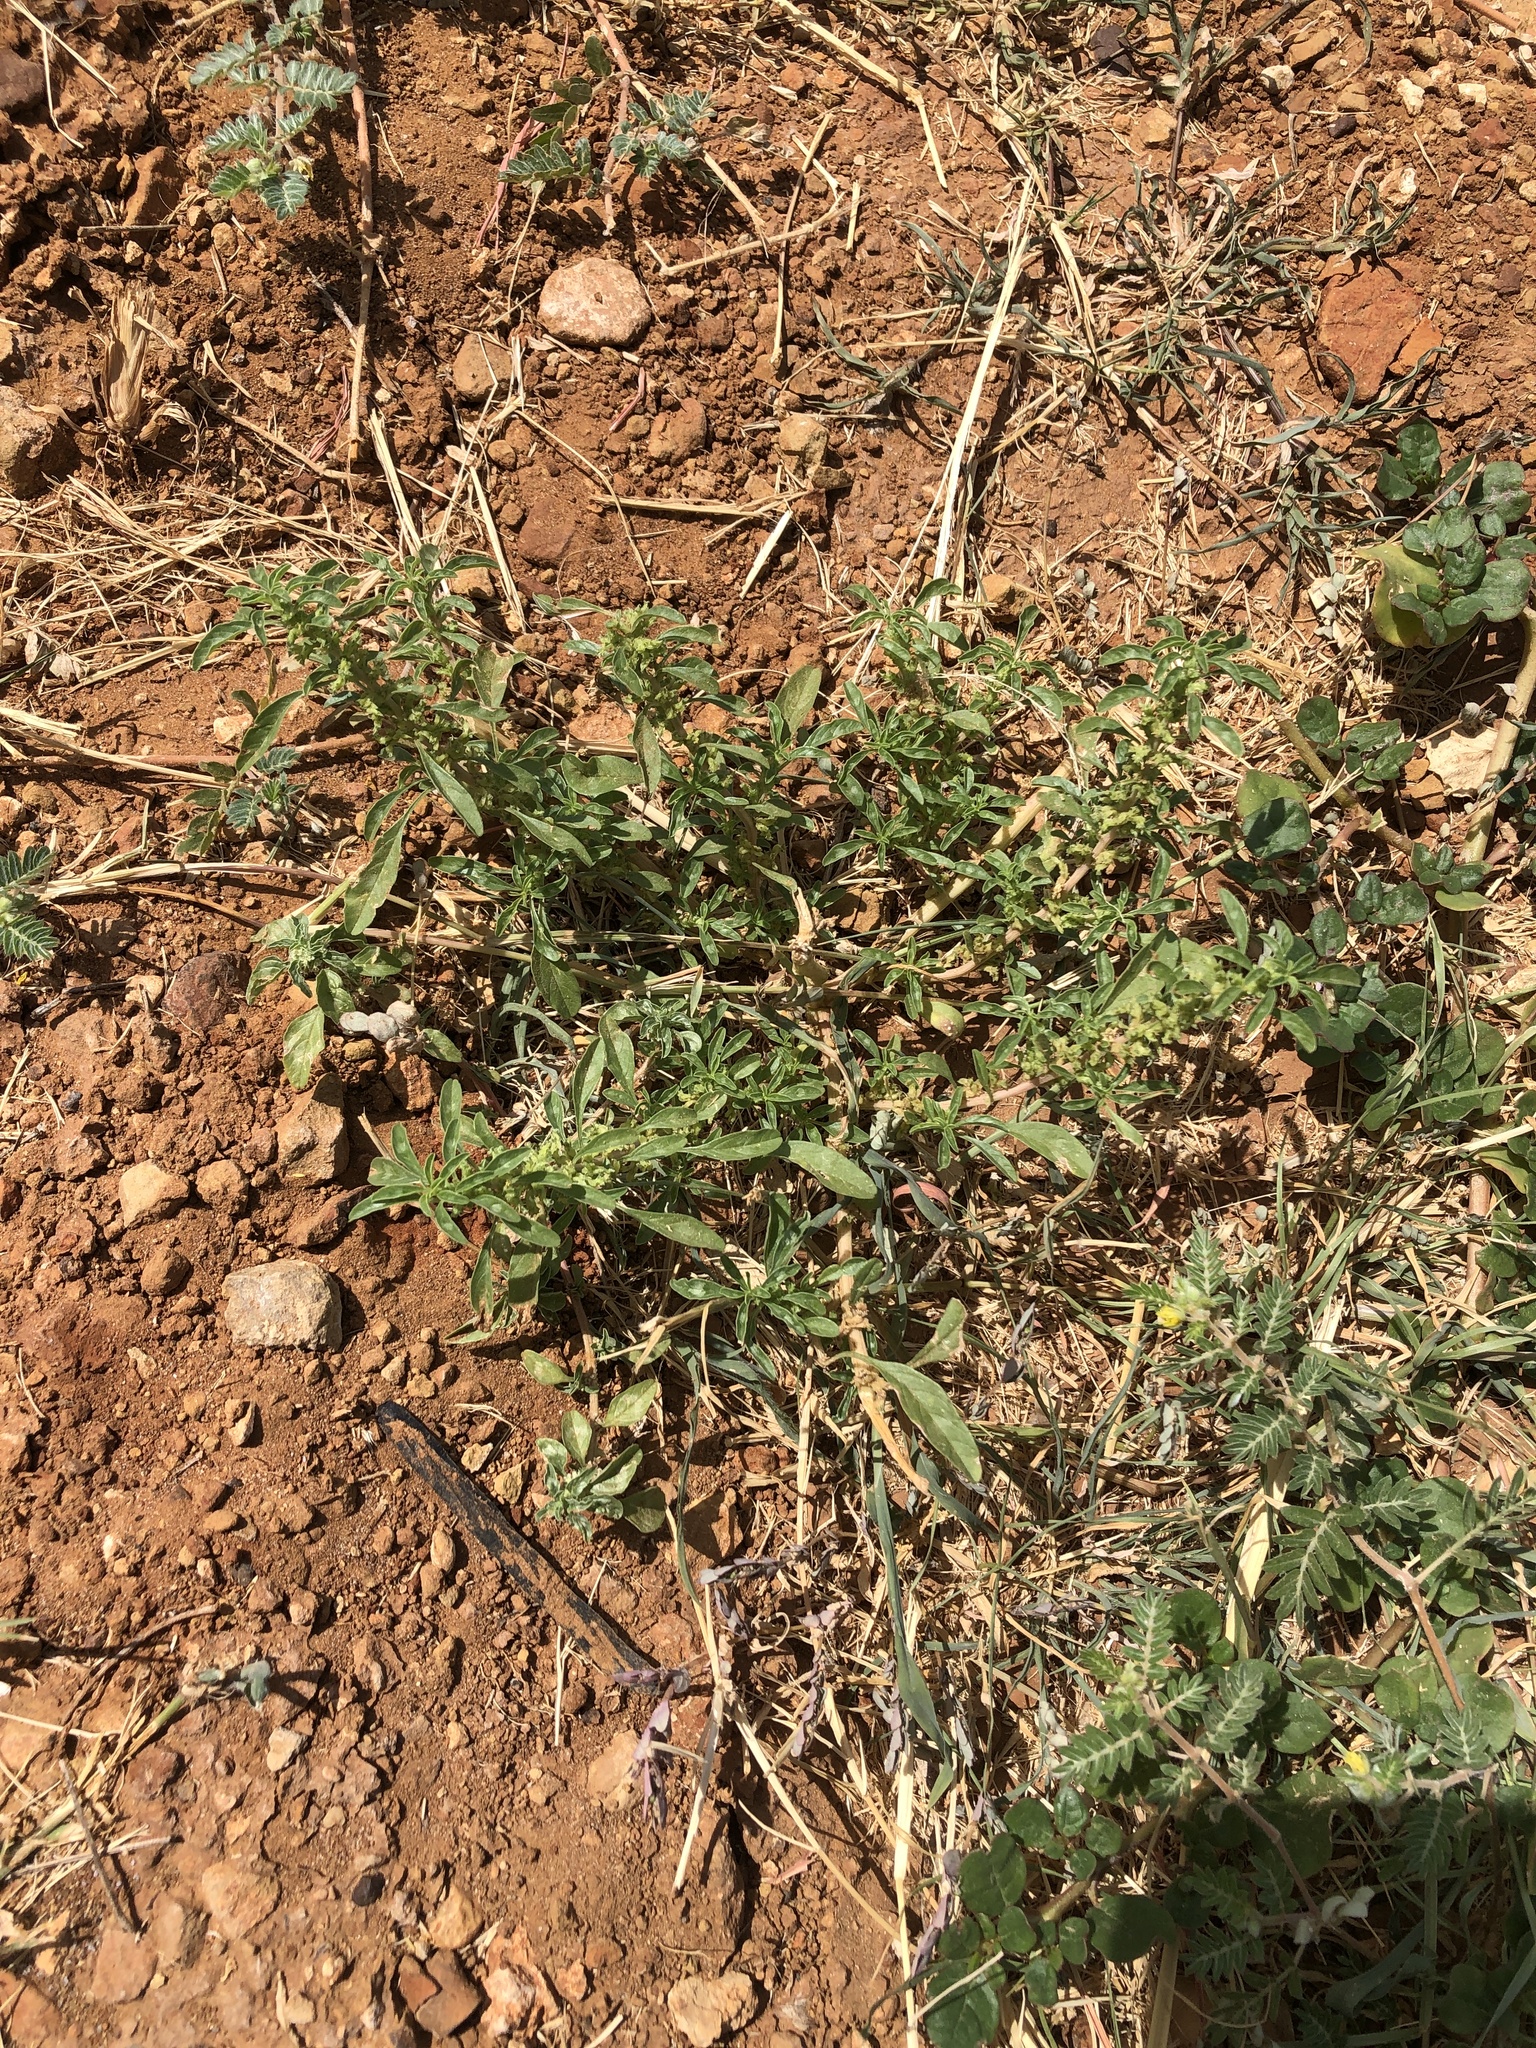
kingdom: Plantae
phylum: Tracheophyta
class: Magnoliopsida
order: Caryophyllales
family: Amaranthaceae
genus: Amaranthus
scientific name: Amaranthus polygonoides
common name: Tropical amaranth
